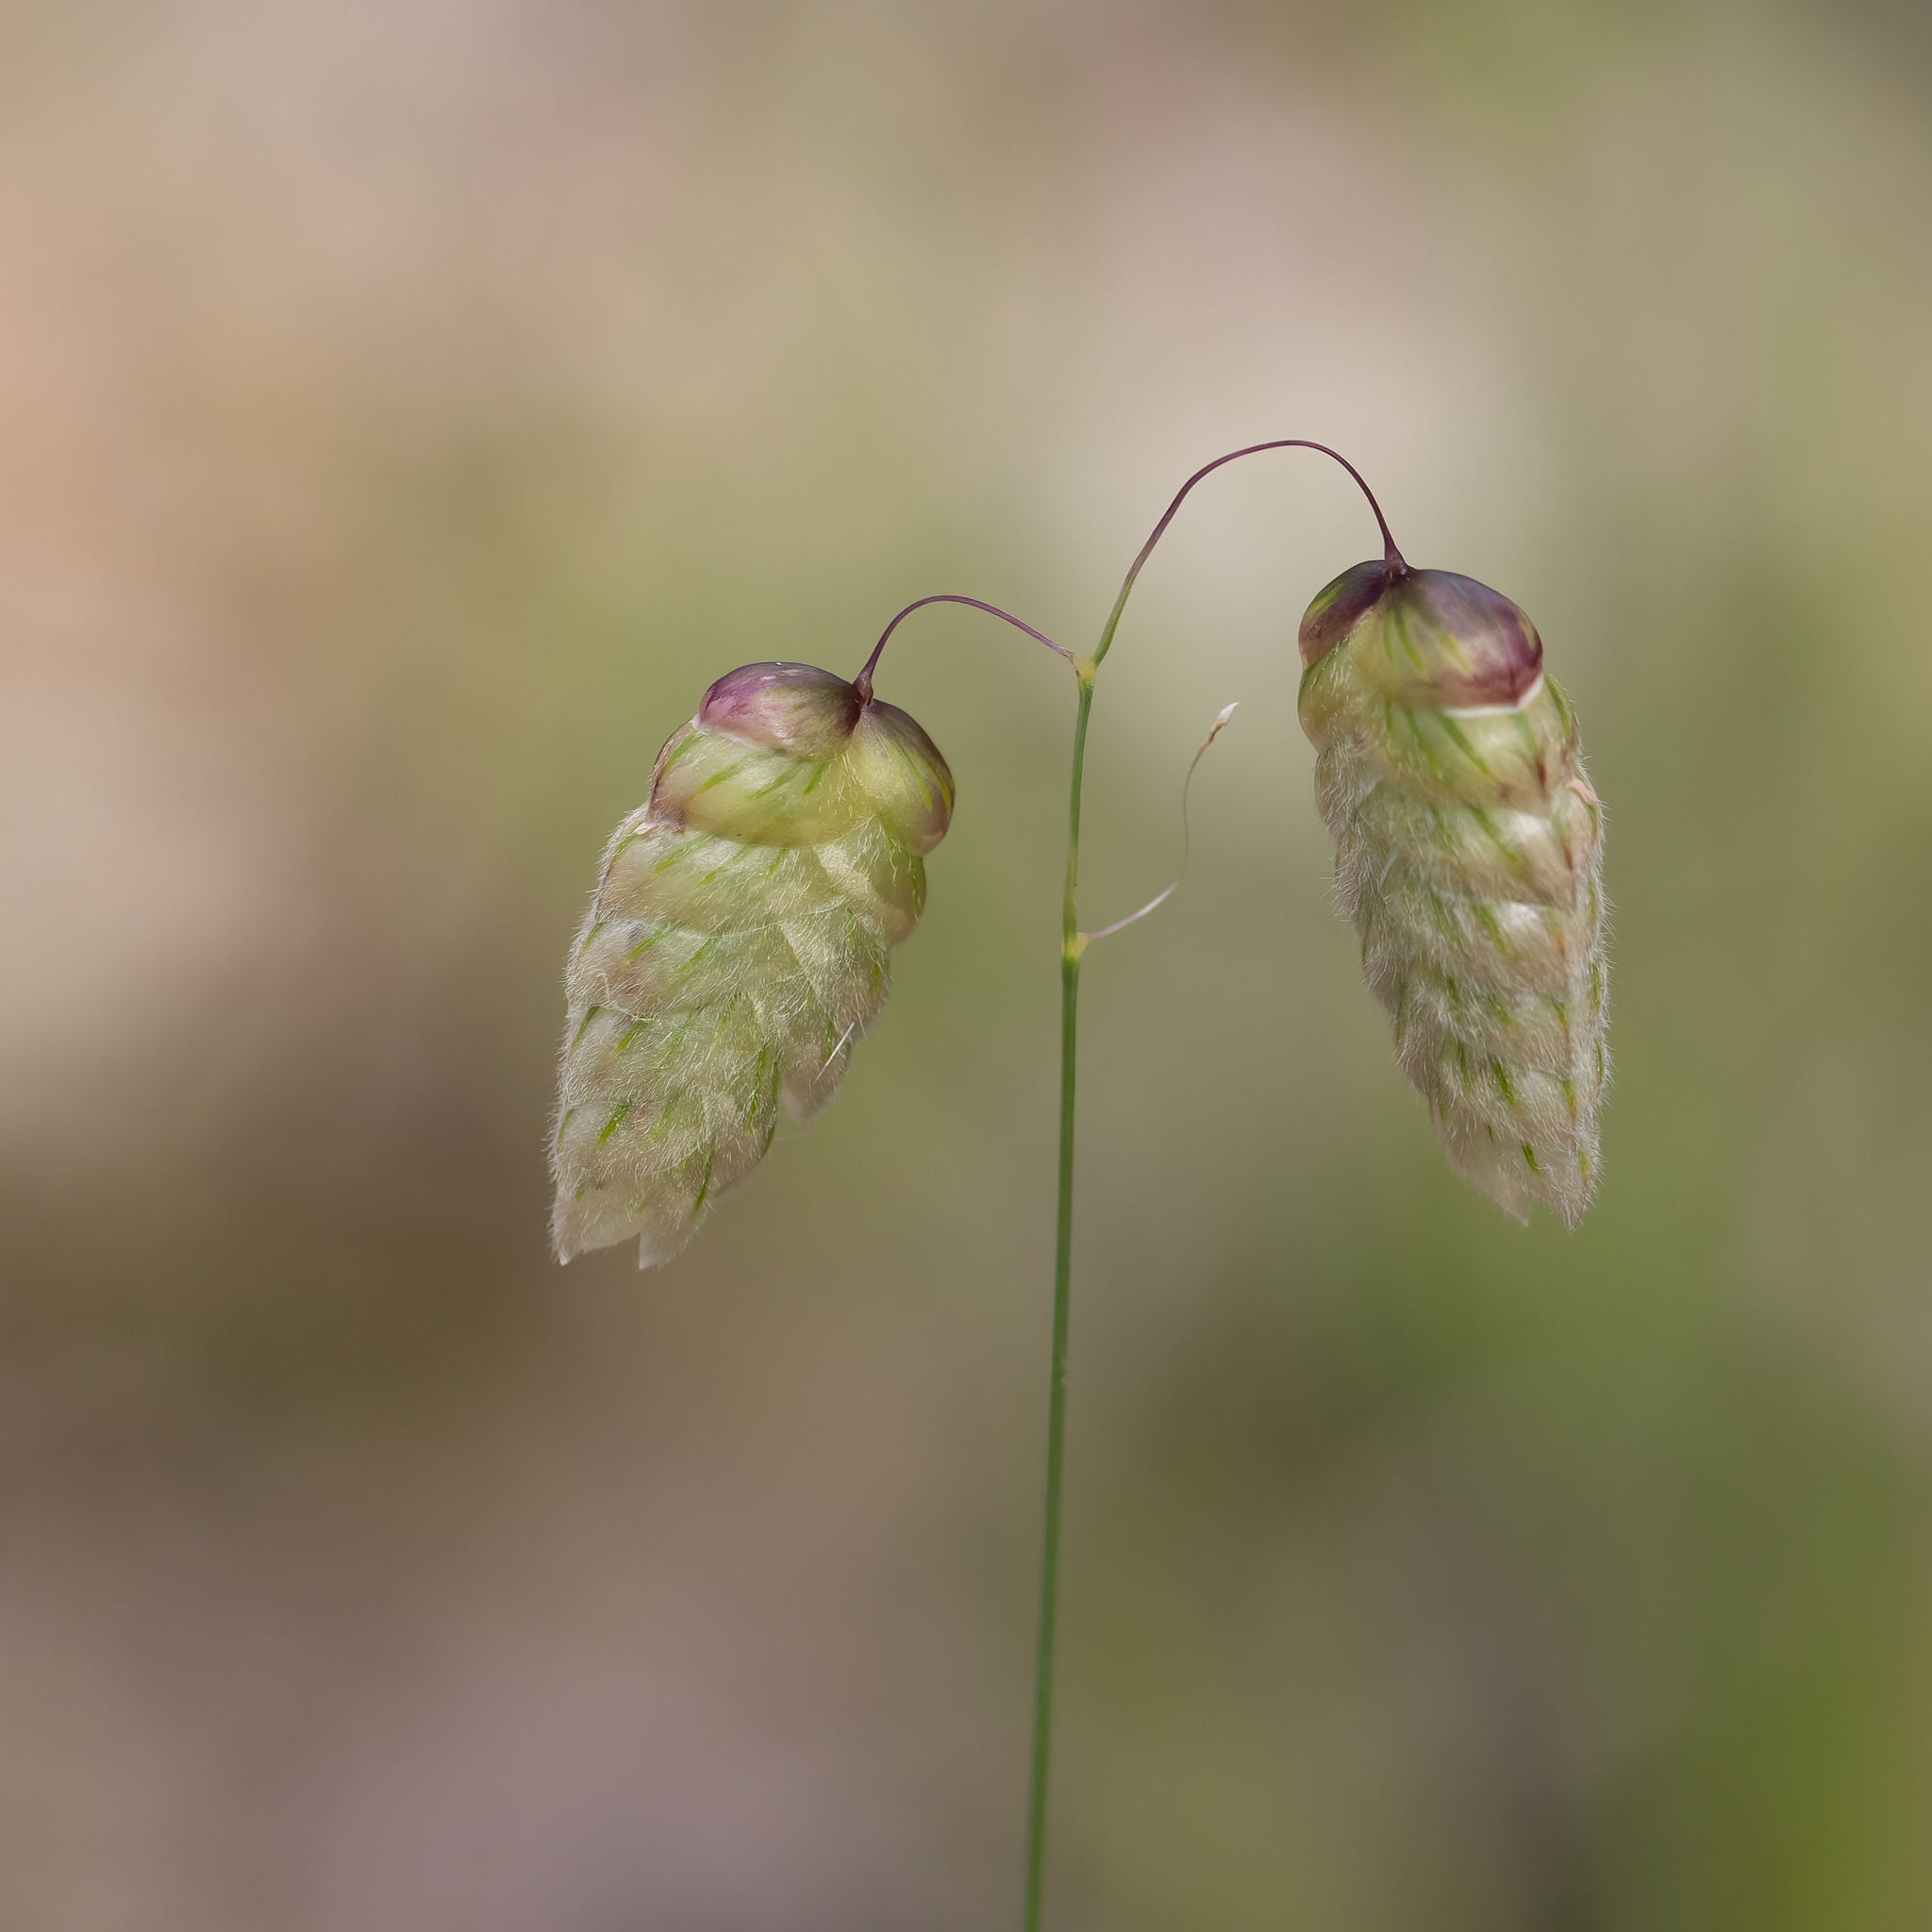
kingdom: Plantae
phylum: Tracheophyta
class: Liliopsida
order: Poales
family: Poaceae
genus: Briza
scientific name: Briza maxima
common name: Big quakinggrass
